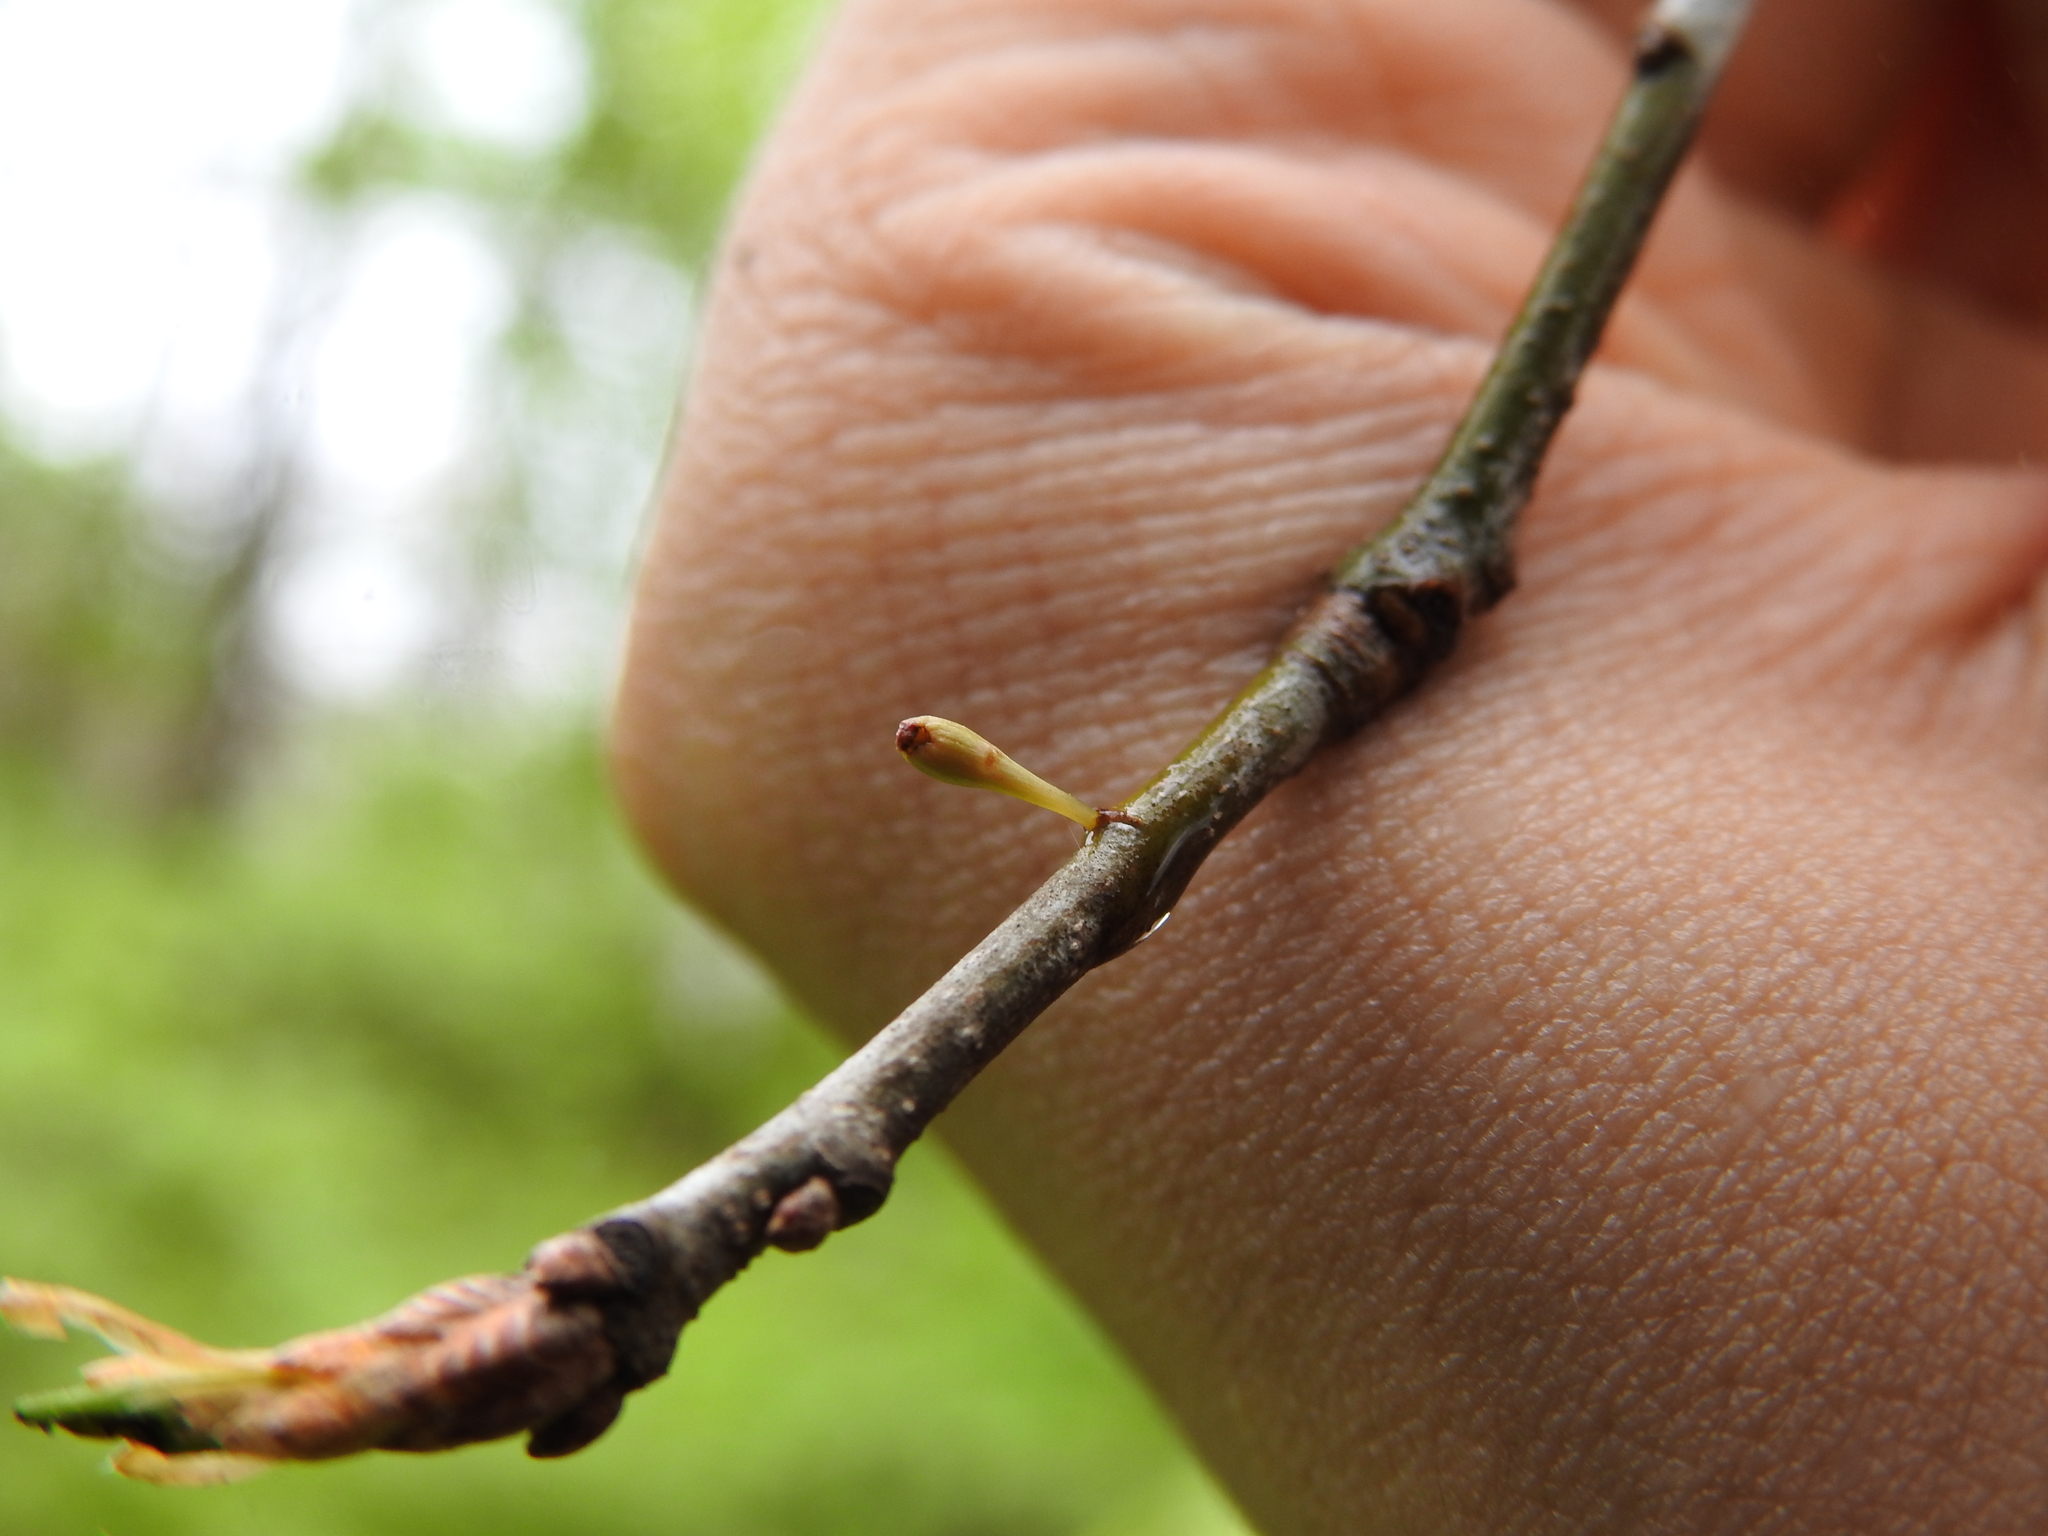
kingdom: Animalia
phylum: Arthropoda
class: Insecta
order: Hymenoptera
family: Cynipidae
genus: Callirhytis
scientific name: Callirhytis
